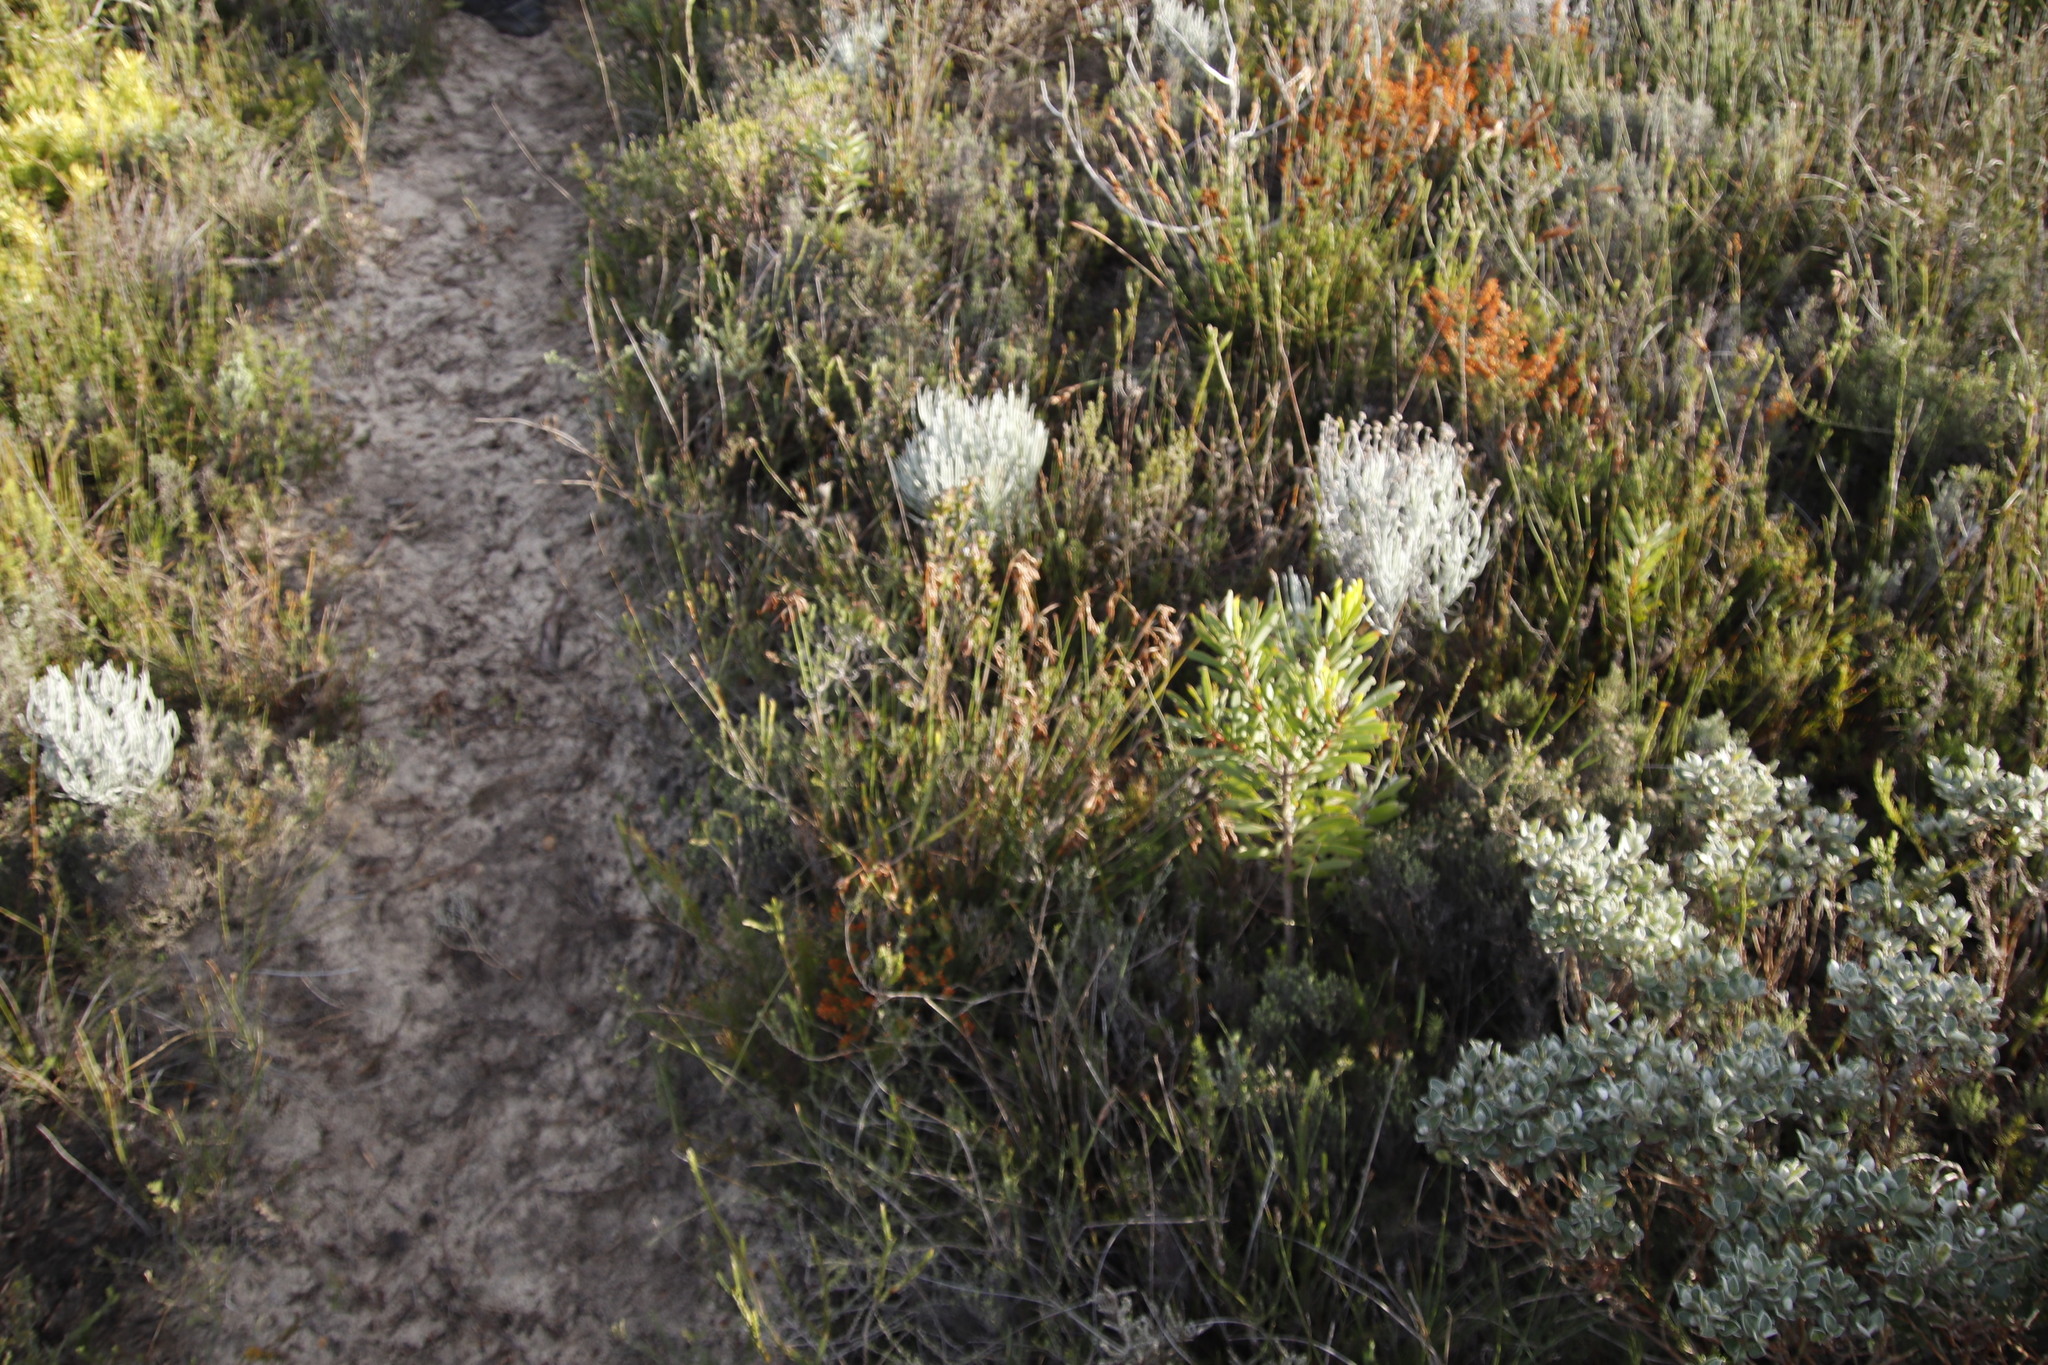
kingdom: Plantae
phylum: Tracheophyta
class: Magnoliopsida
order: Asterales
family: Asteraceae
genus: Syncarpha
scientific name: Syncarpha gnaphaloides
